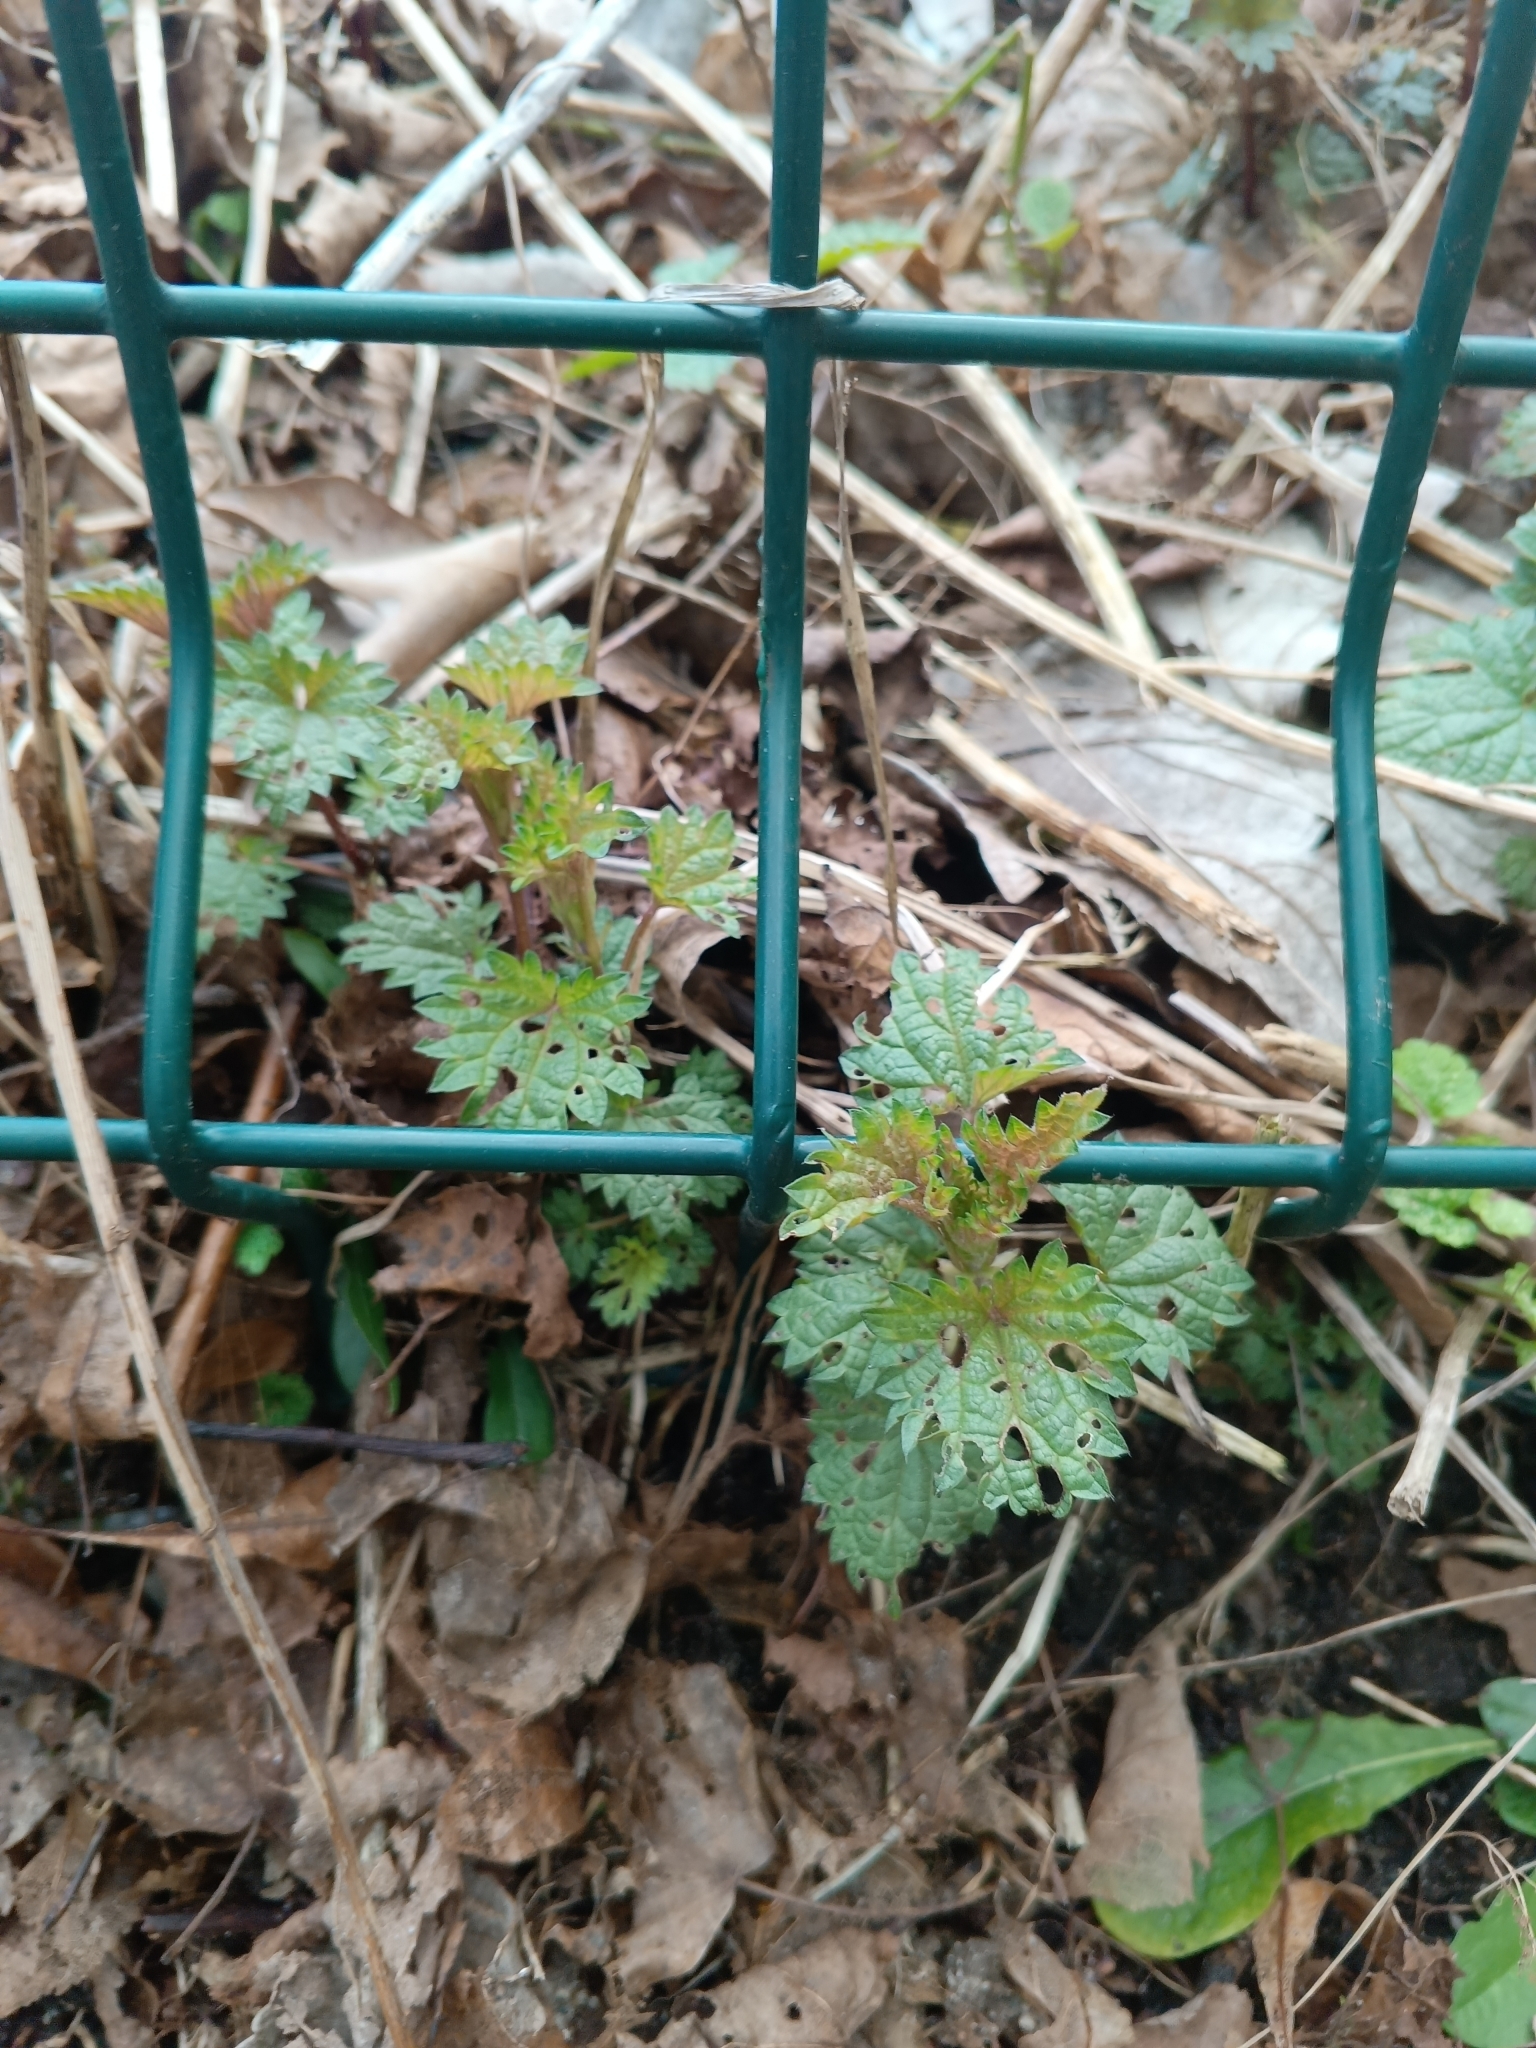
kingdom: Plantae
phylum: Tracheophyta
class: Magnoliopsida
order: Rosales
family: Urticaceae
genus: Urtica
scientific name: Urtica dioica
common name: Common nettle
